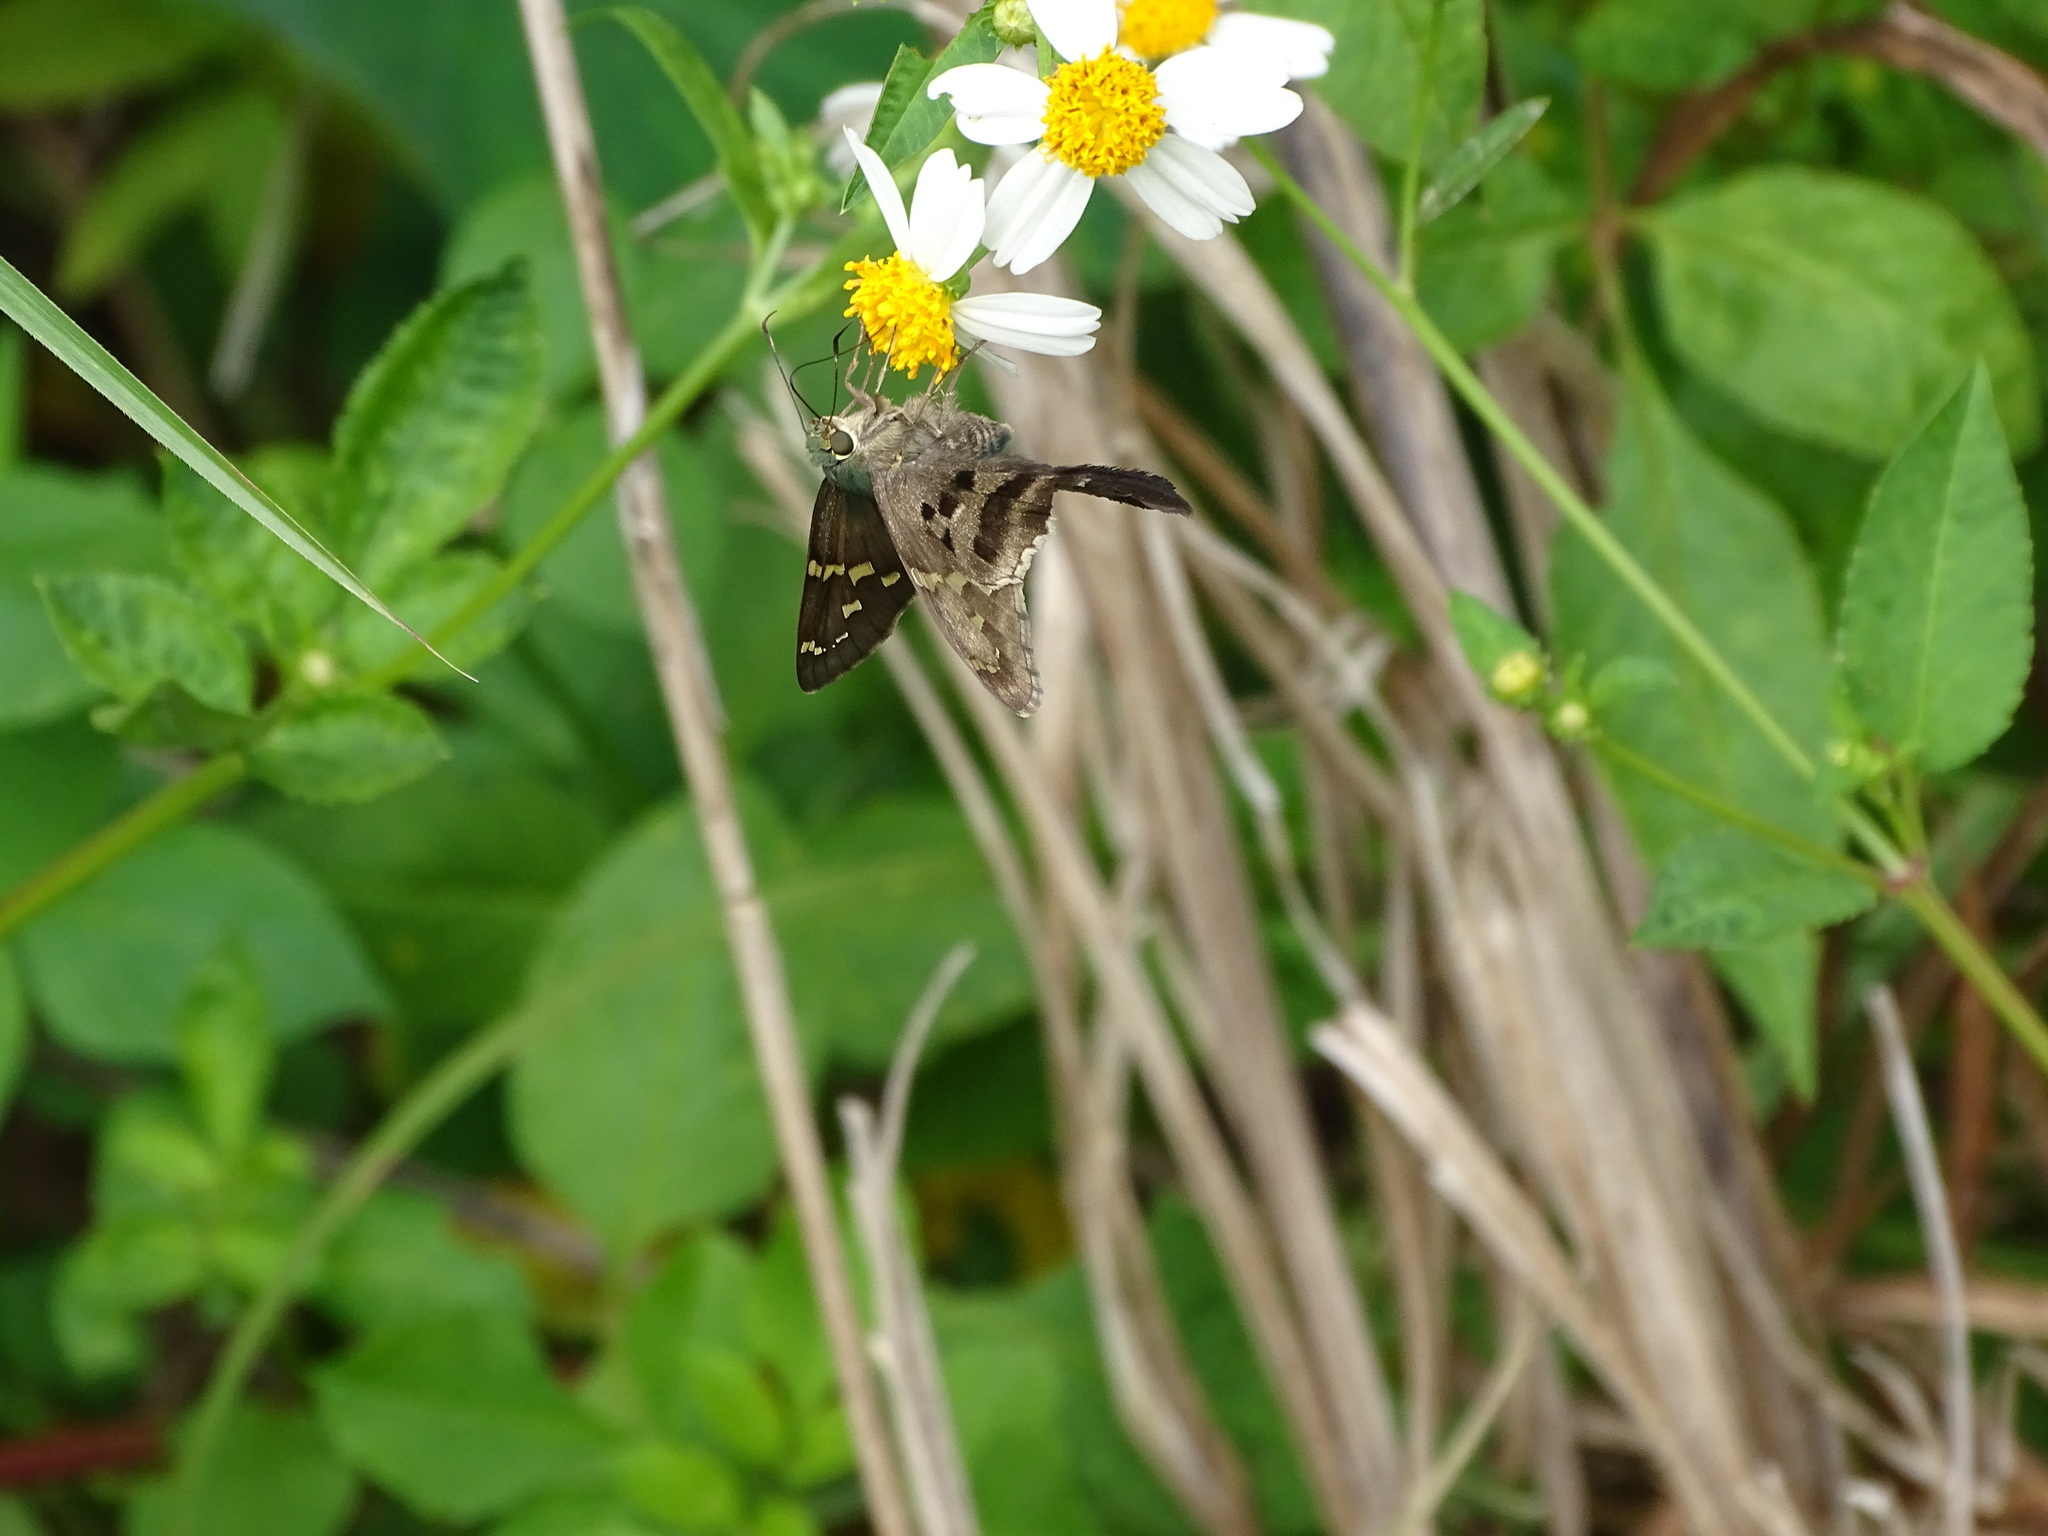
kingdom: Animalia
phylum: Arthropoda
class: Insecta
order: Lepidoptera
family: Hesperiidae
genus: Urbanus
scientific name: Urbanus proteus
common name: Long-tailed skipper
